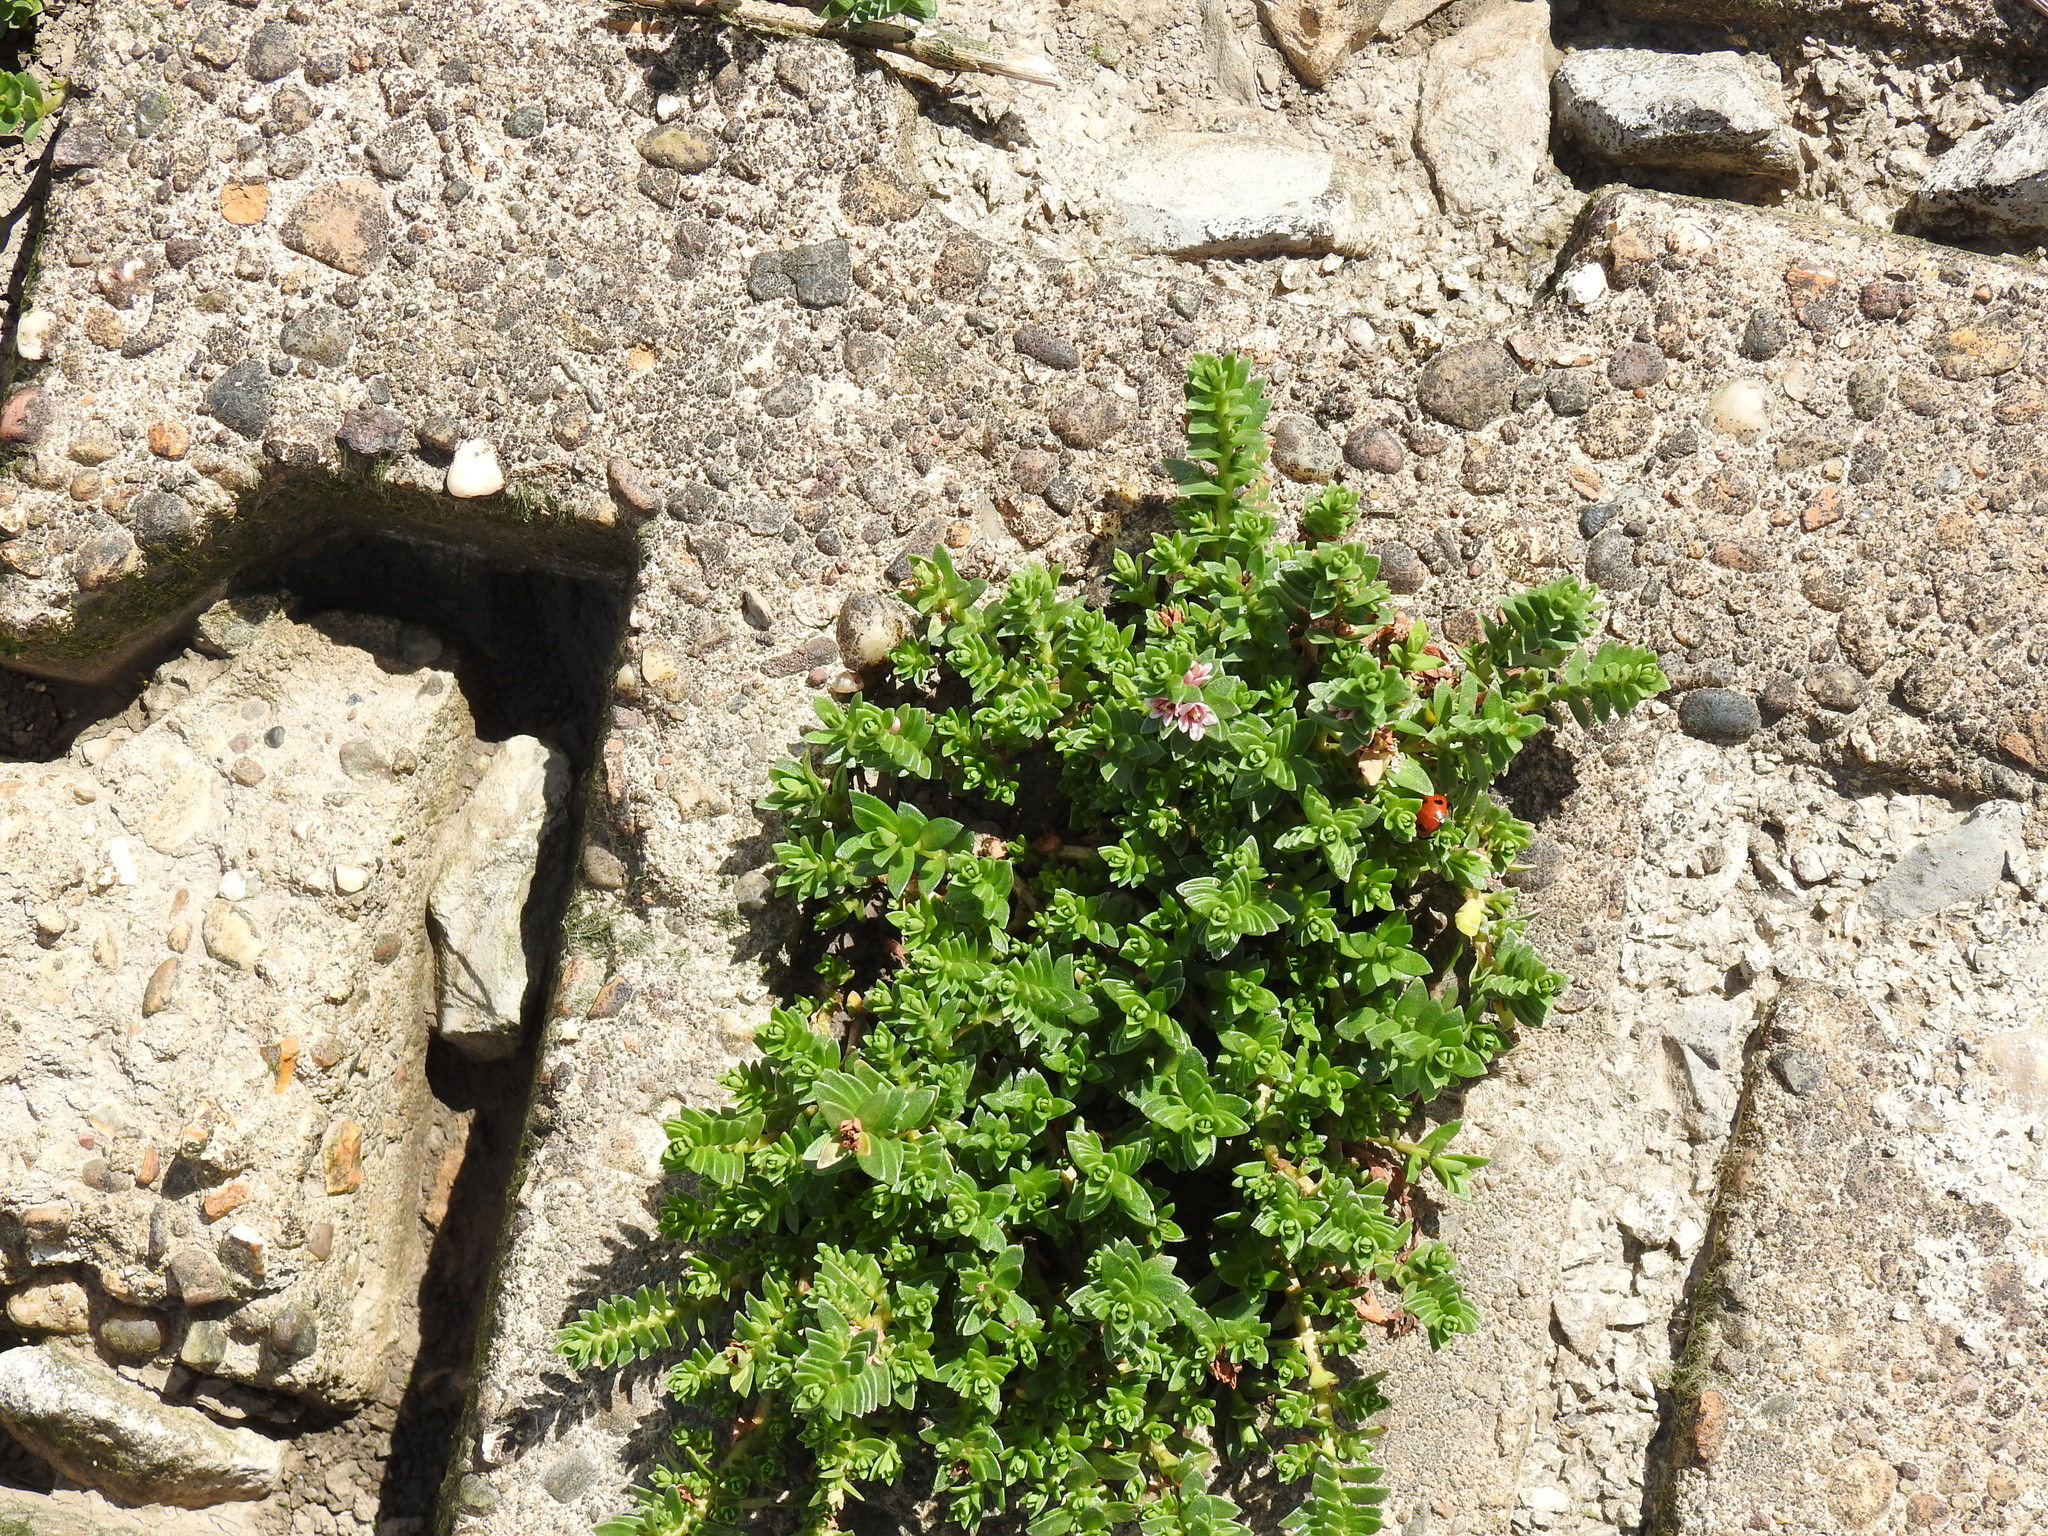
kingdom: Plantae
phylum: Tracheophyta
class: Magnoliopsida
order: Ericales
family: Primulaceae
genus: Lysimachia
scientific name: Lysimachia maritima
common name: Sea milkwort
